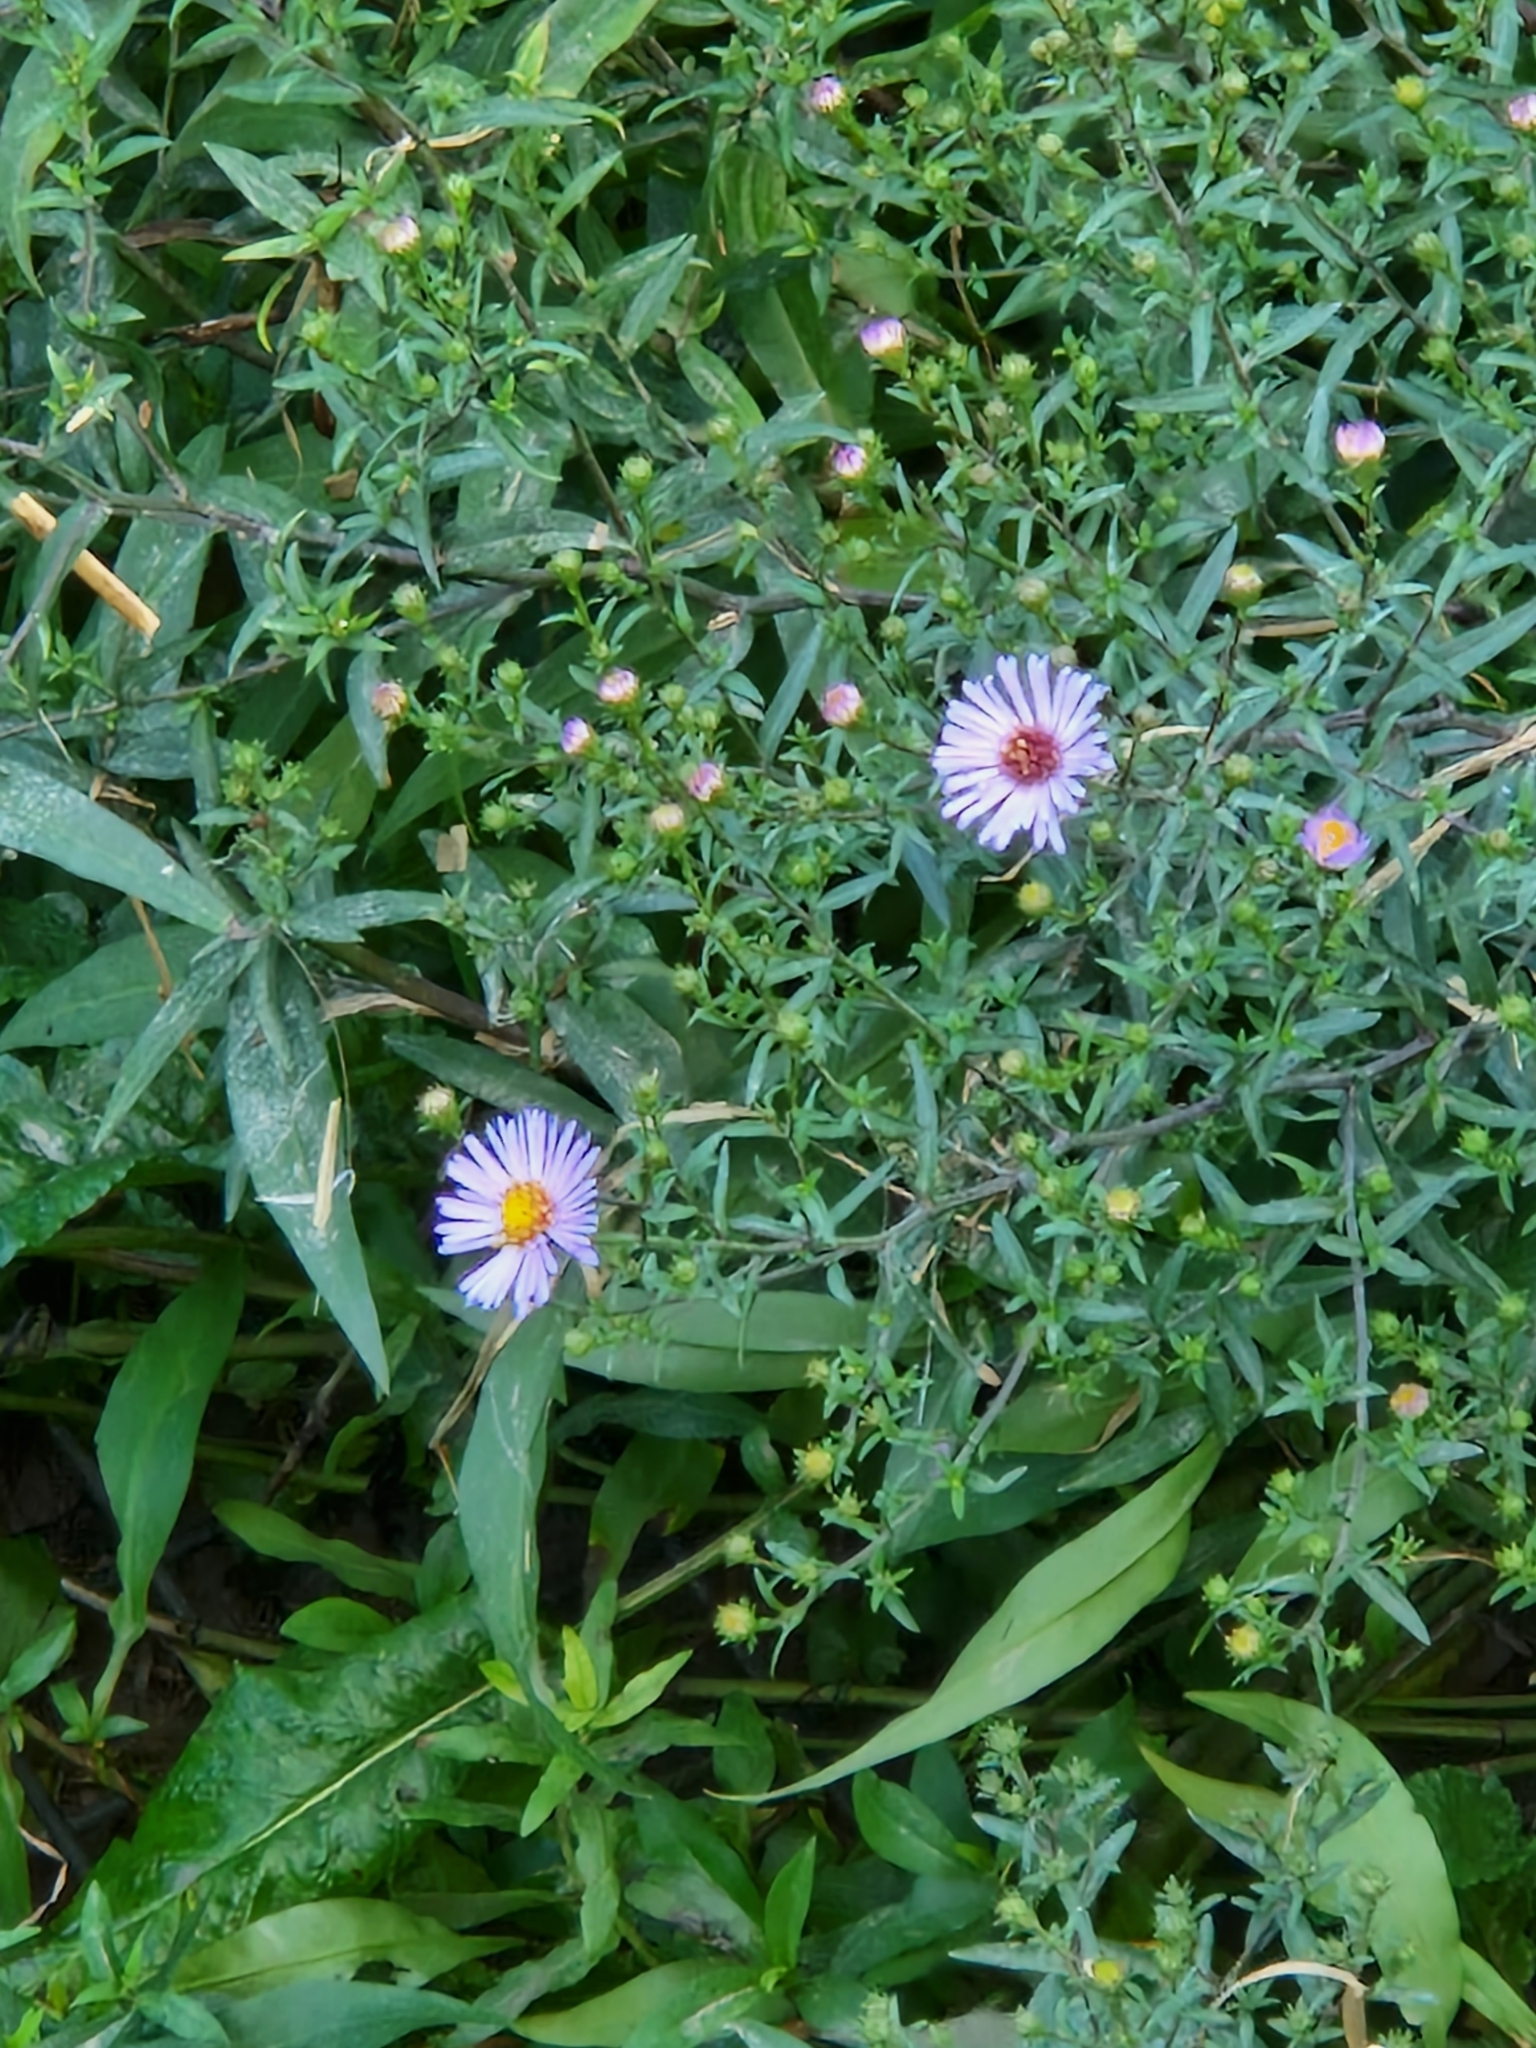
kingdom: Plantae
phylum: Tracheophyta
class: Magnoliopsida
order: Asterales
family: Asteraceae
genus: Symphyotrichum
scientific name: Symphyotrichum salignum
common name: Common michaelmas daisy
